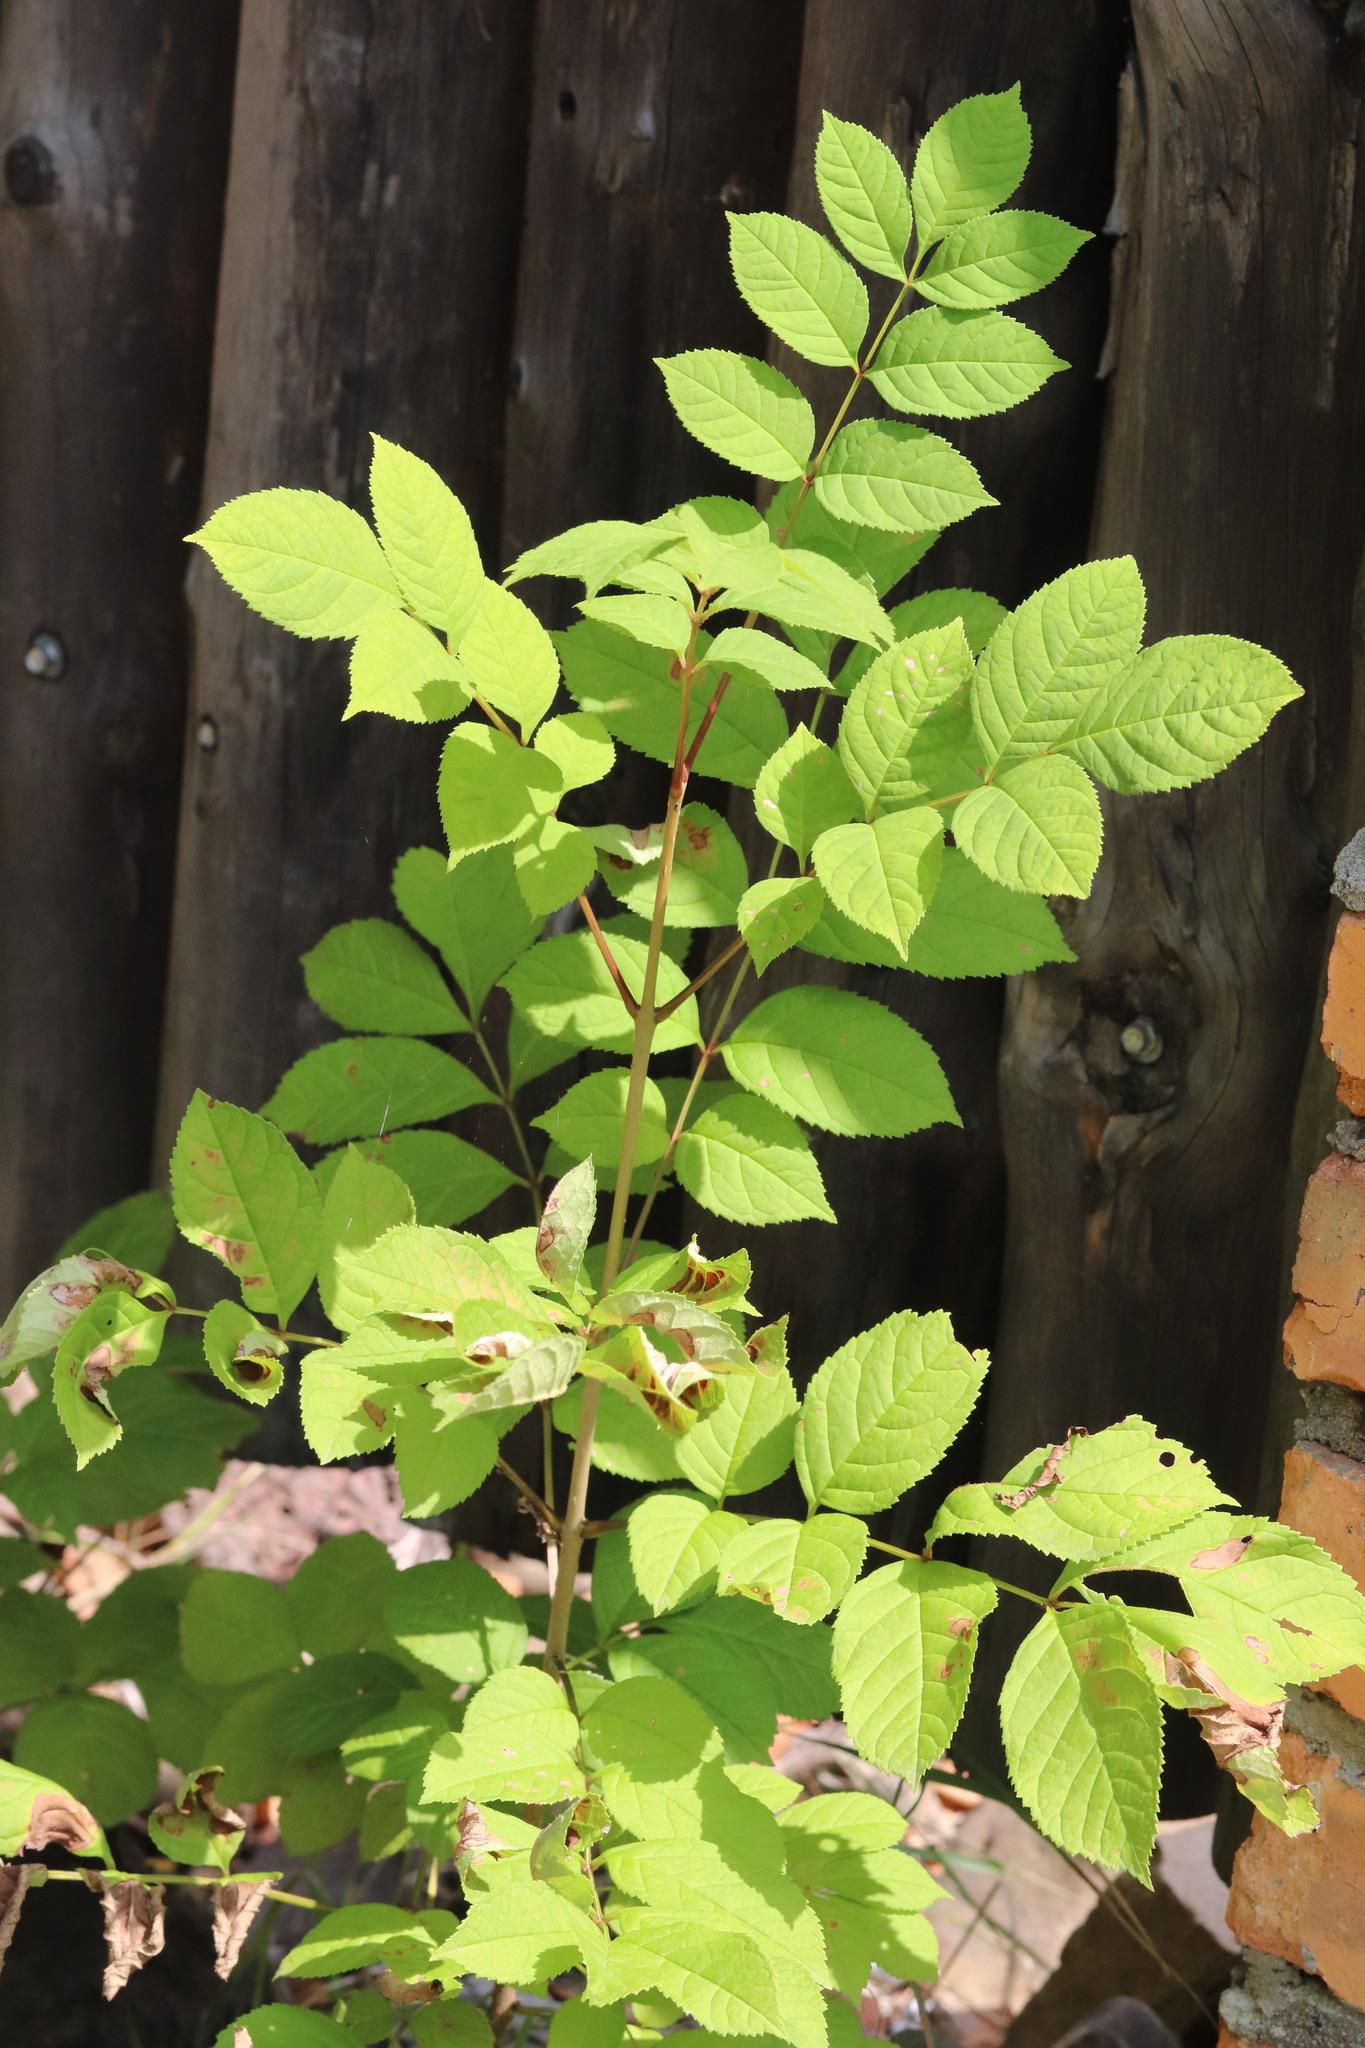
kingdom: Plantae
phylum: Tracheophyta
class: Magnoliopsida
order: Lamiales
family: Oleaceae
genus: Fraxinus
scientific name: Fraxinus mandshurica
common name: Manchurian ash
